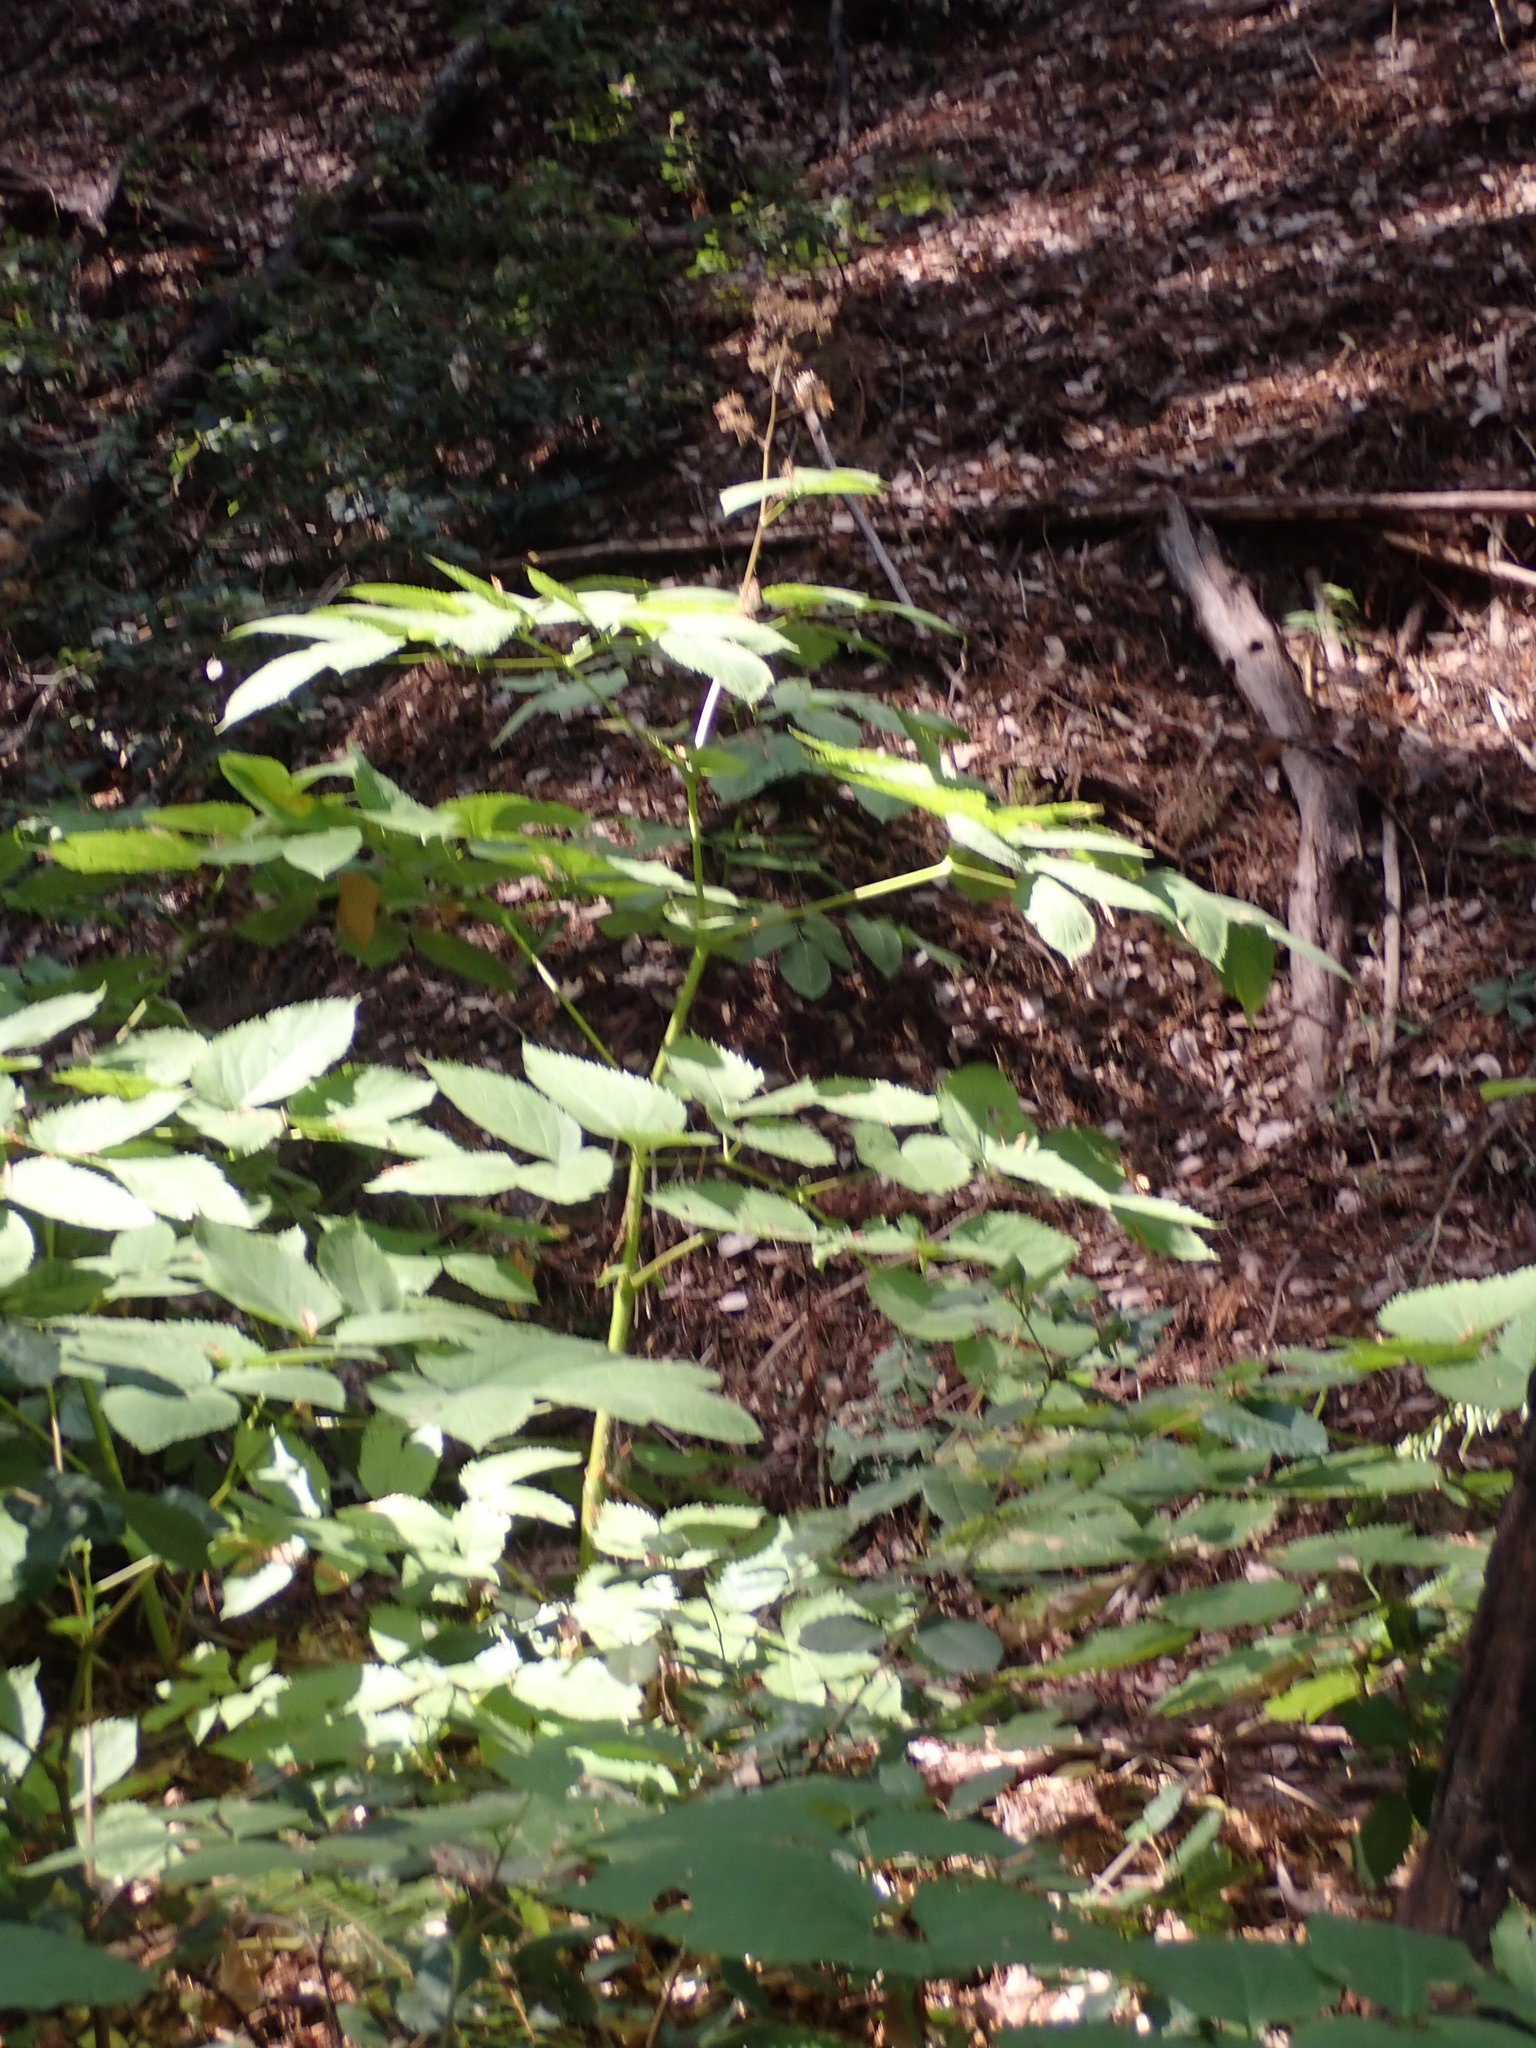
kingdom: Plantae
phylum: Tracheophyta
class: Magnoliopsida
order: Apiales
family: Araliaceae
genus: Aralia
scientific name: Aralia californica
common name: California-ginseng
